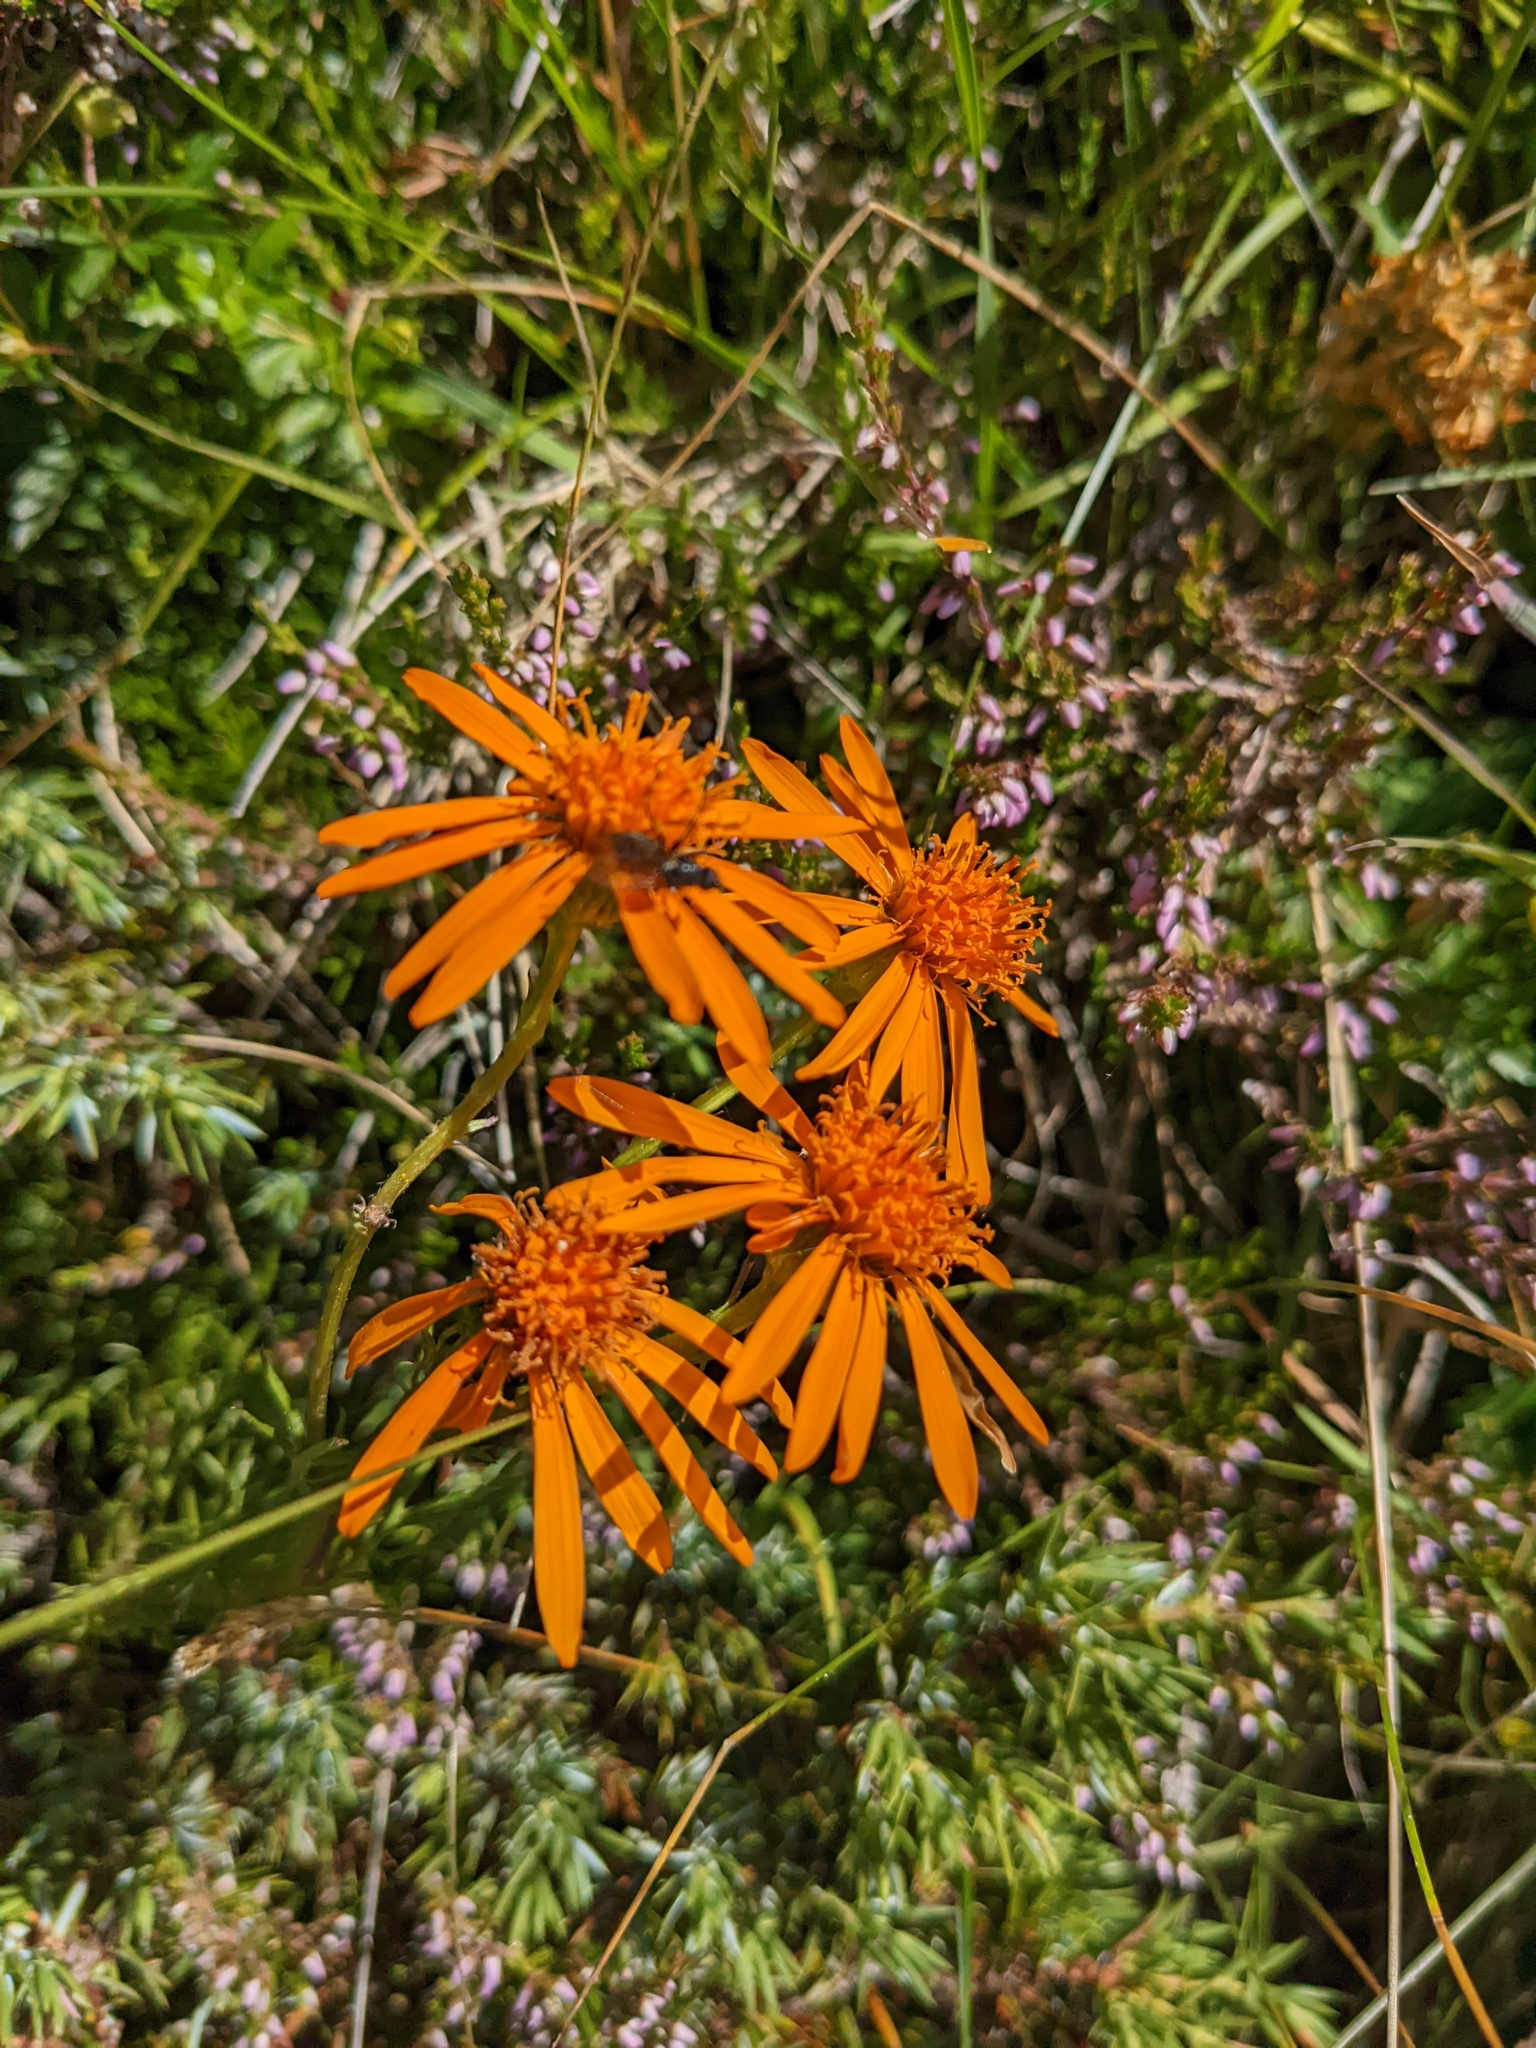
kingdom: Plantae
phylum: Tracheophyta
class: Magnoliopsida
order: Asterales
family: Asteraceae
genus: Jacobaea
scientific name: Jacobaea abrotanifolia
